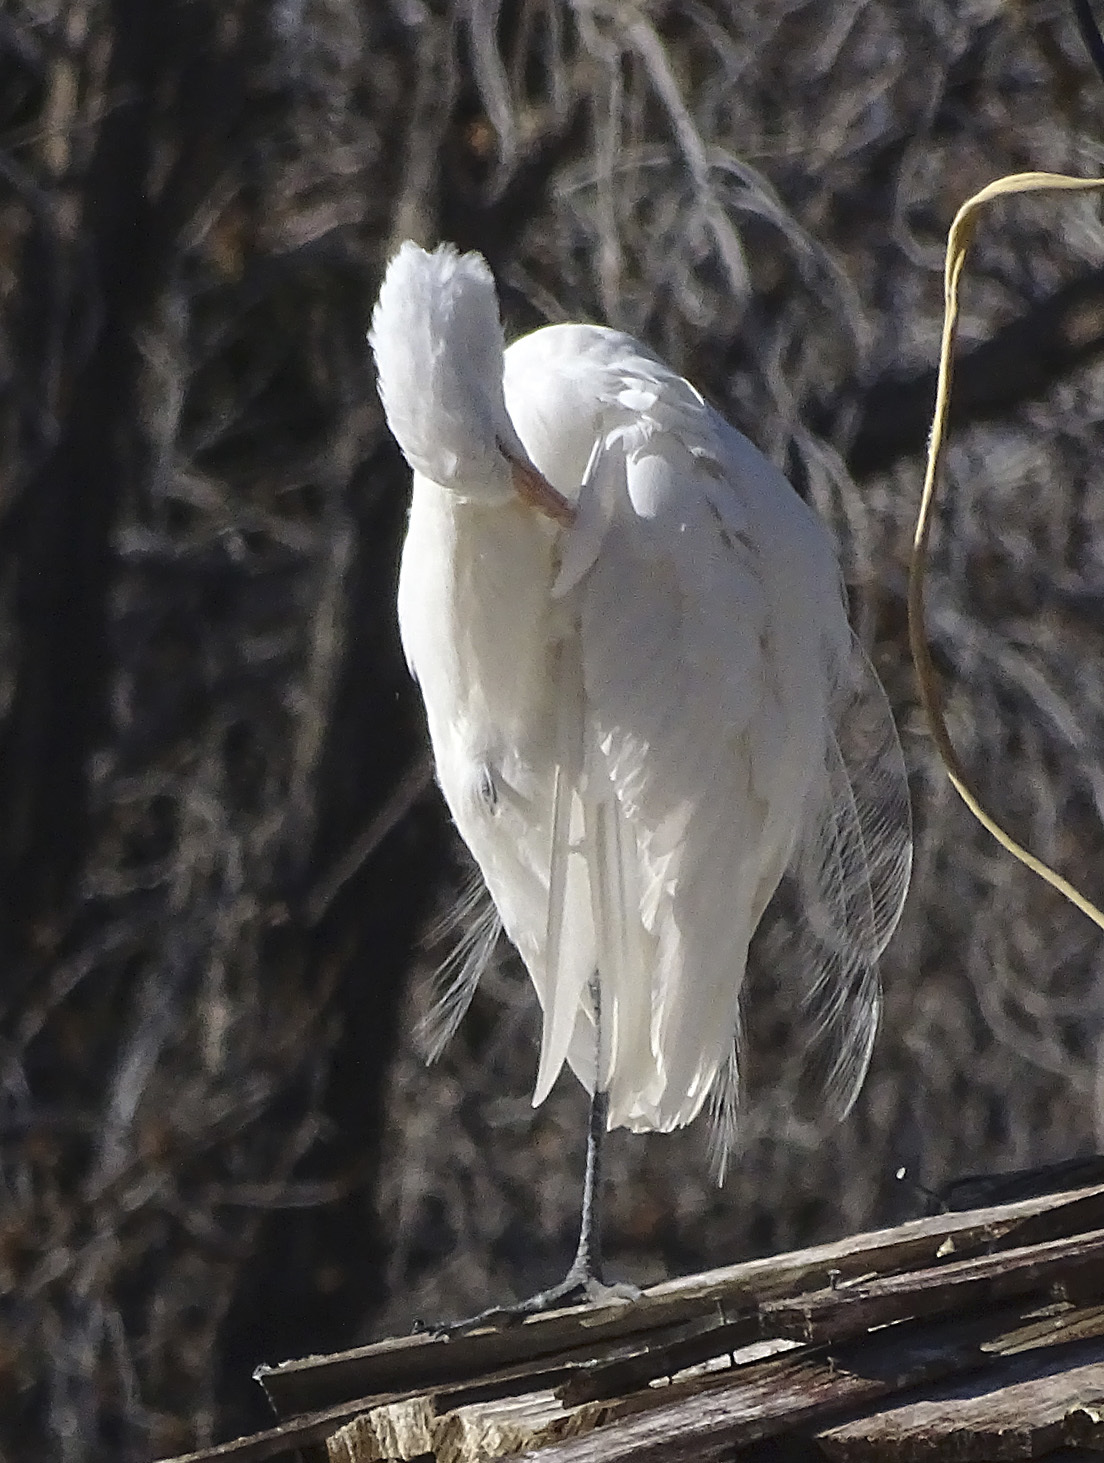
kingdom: Animalia
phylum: Chordata
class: Aves
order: Pelecaniformes
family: Ardeidae
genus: Ardea
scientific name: Ardea alba
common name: Great egret
